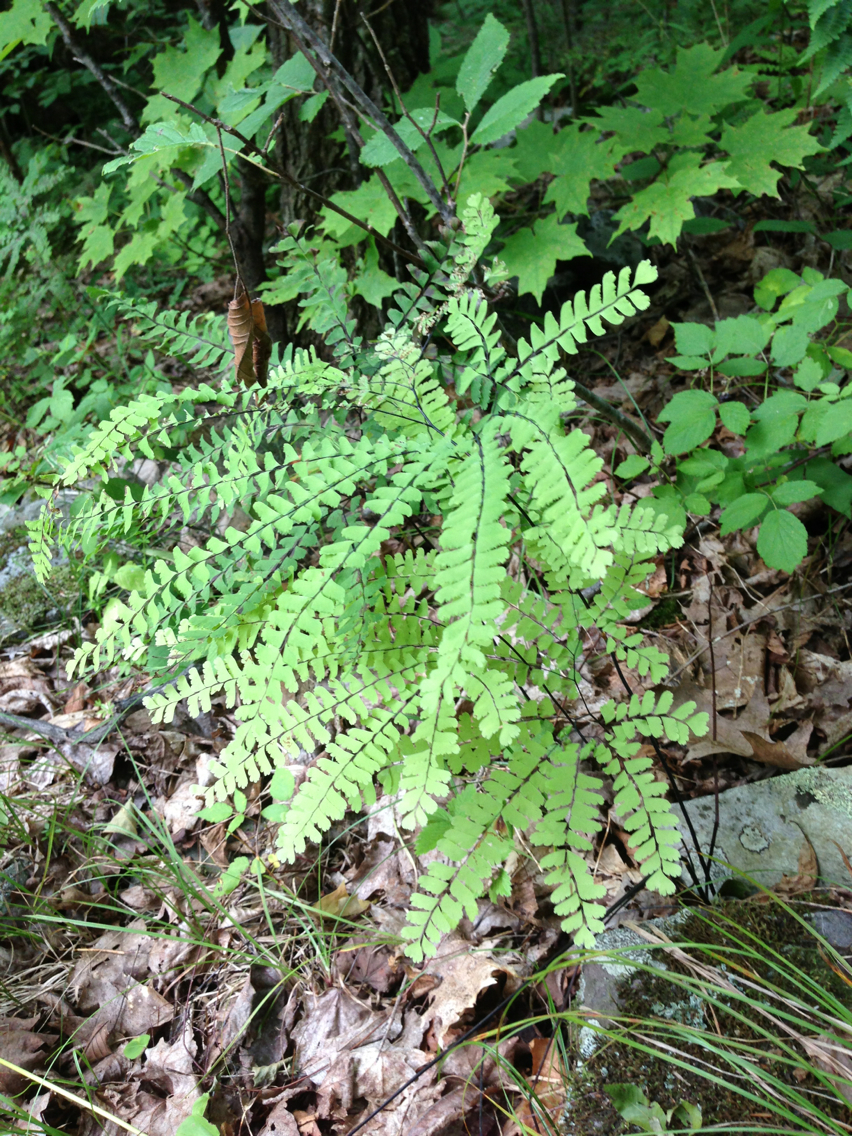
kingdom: Plantae
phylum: Tracheophyta
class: Polypodiopsida
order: Polypodiales
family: Pteridaceae
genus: Adiantum
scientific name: Adiantum pedatum
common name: Five-finger fern
